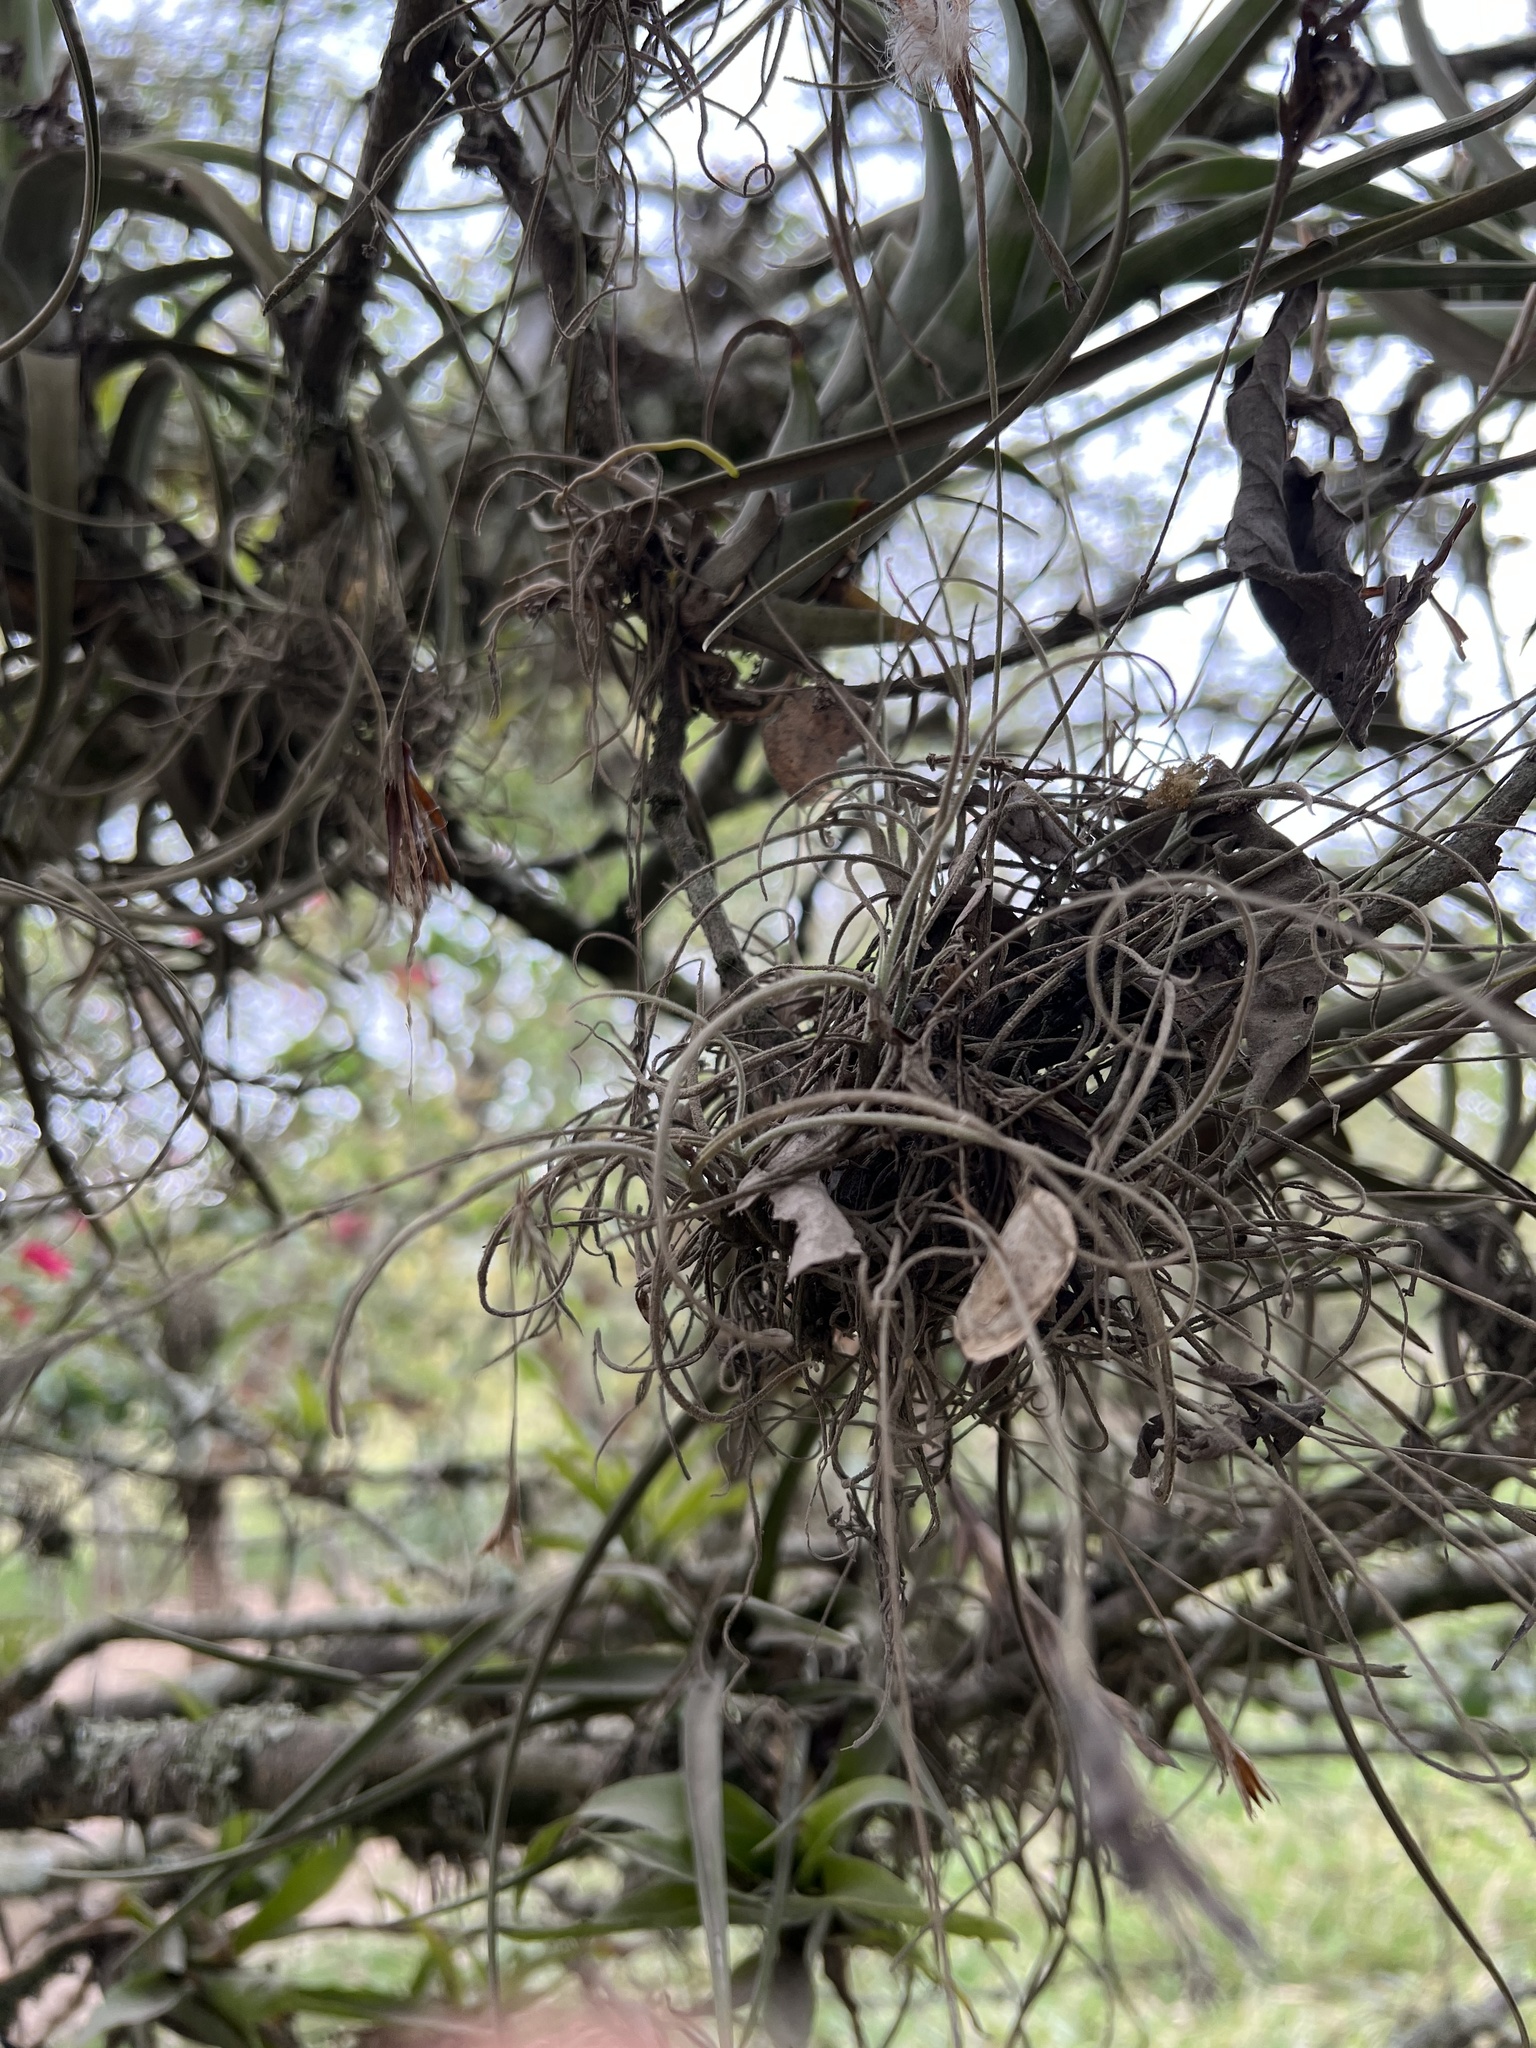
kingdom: Plantae
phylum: Tracheophyta
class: Liliopsida
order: Poales
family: Bromeliaceae
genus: Tillandsia
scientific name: Tillandsia recurvata
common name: Small ballmoss
